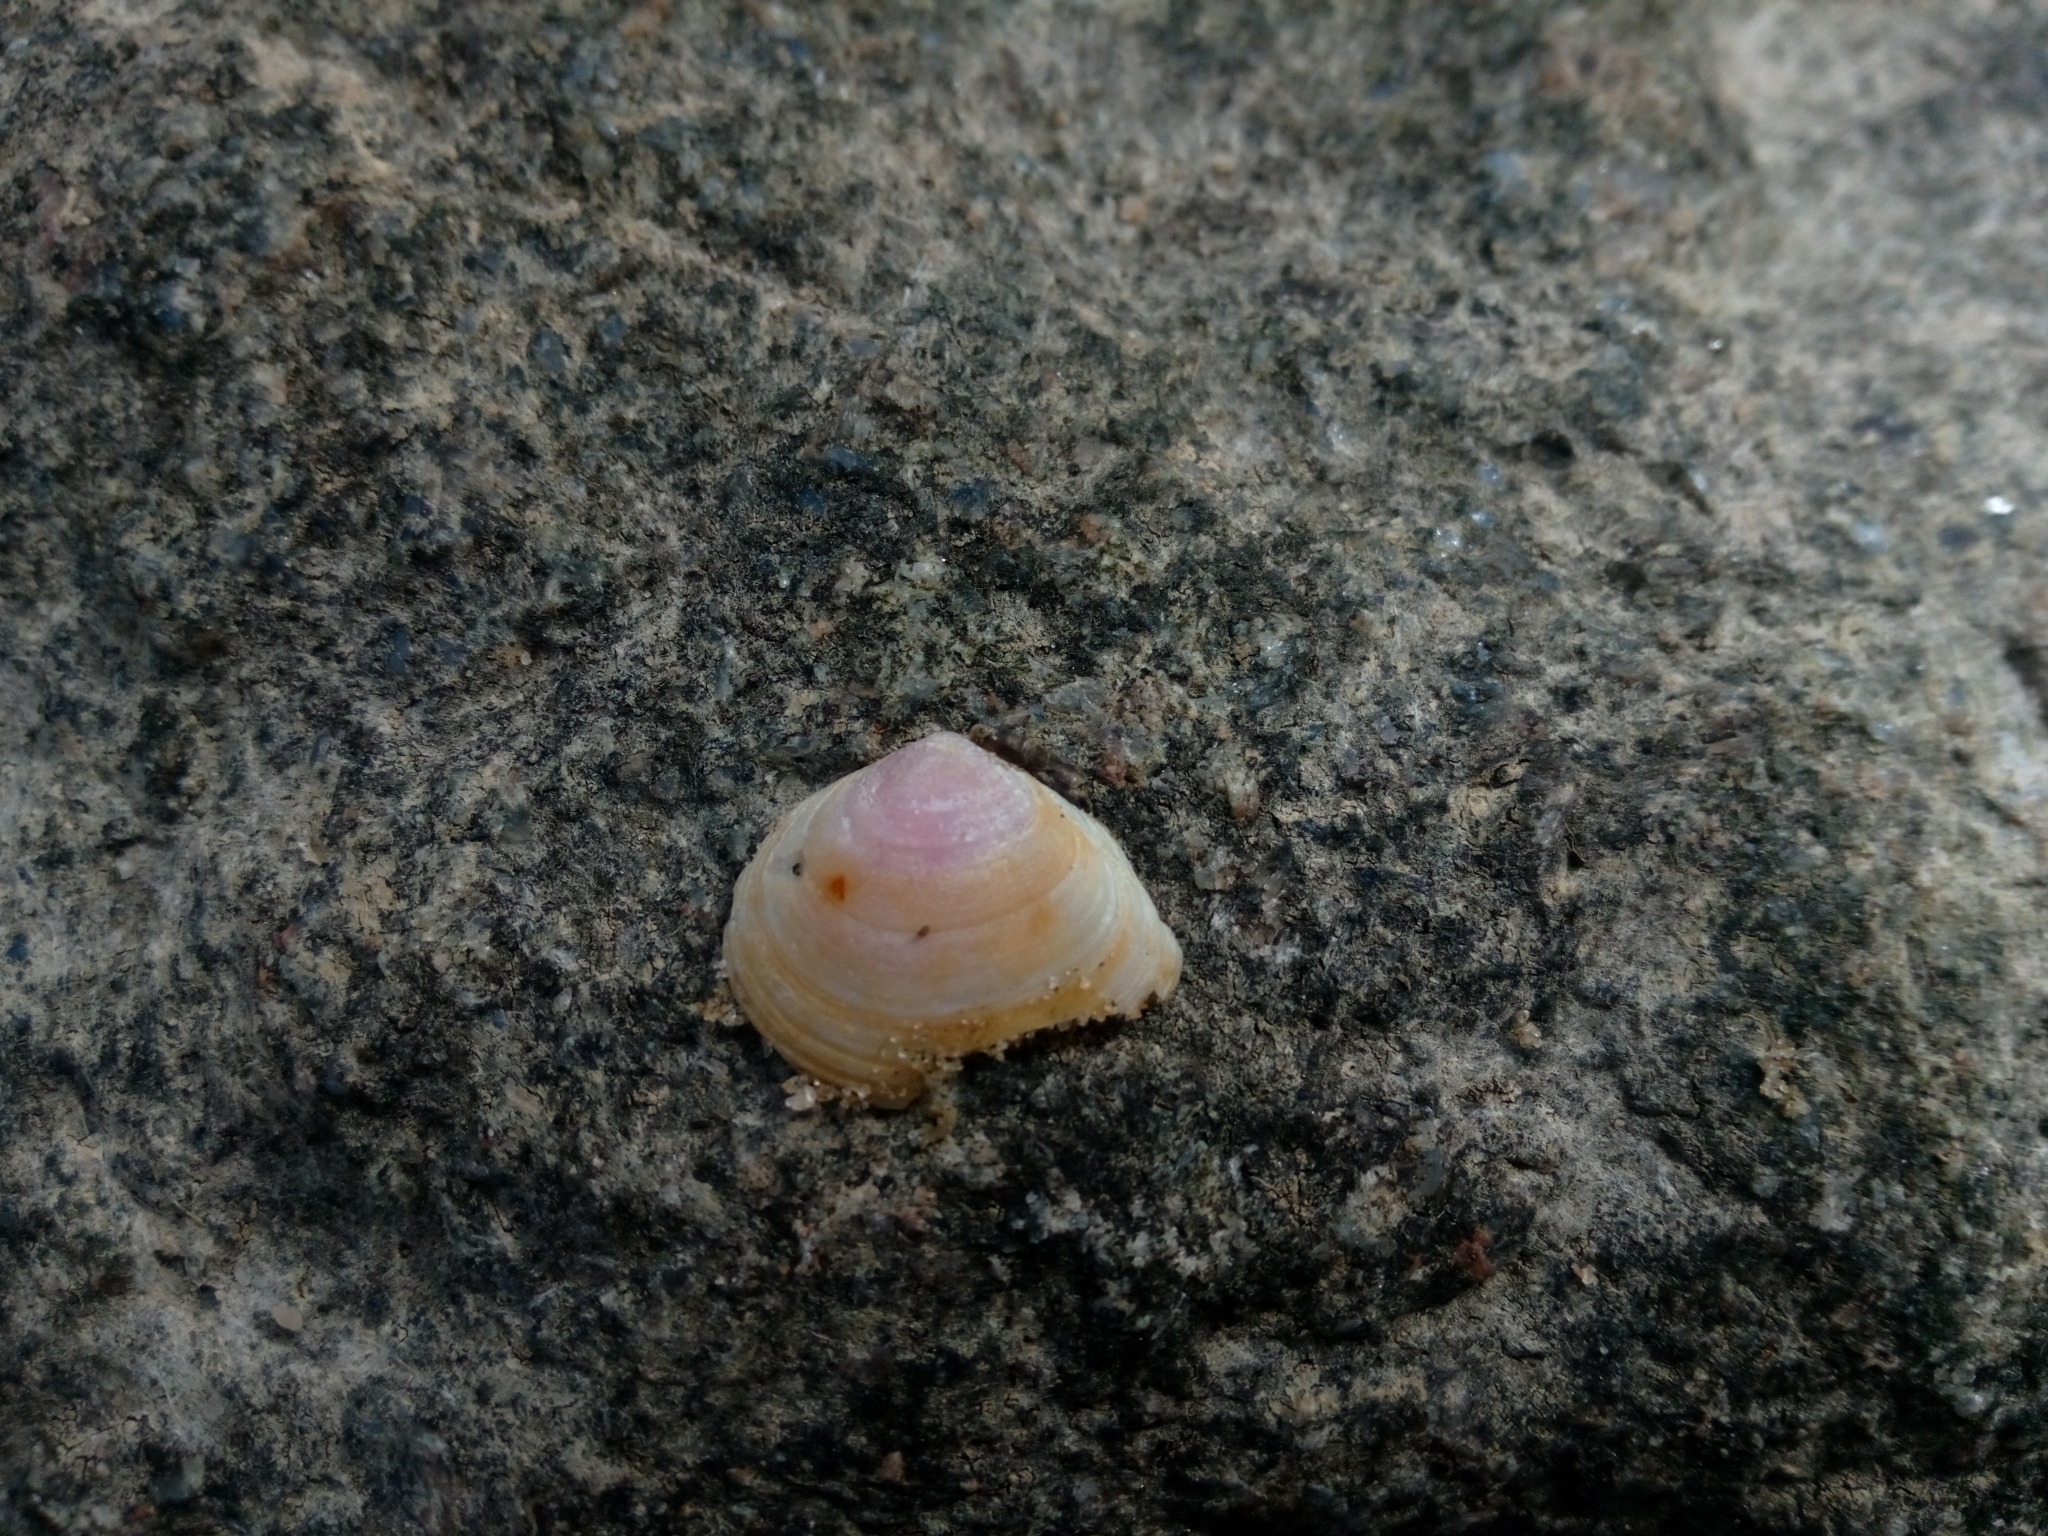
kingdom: Animalia
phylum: Mollusca
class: Bivalvia
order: Cardiida
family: Tellinidae
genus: Macoma
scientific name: Macoma balthica
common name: Baltic tellin
